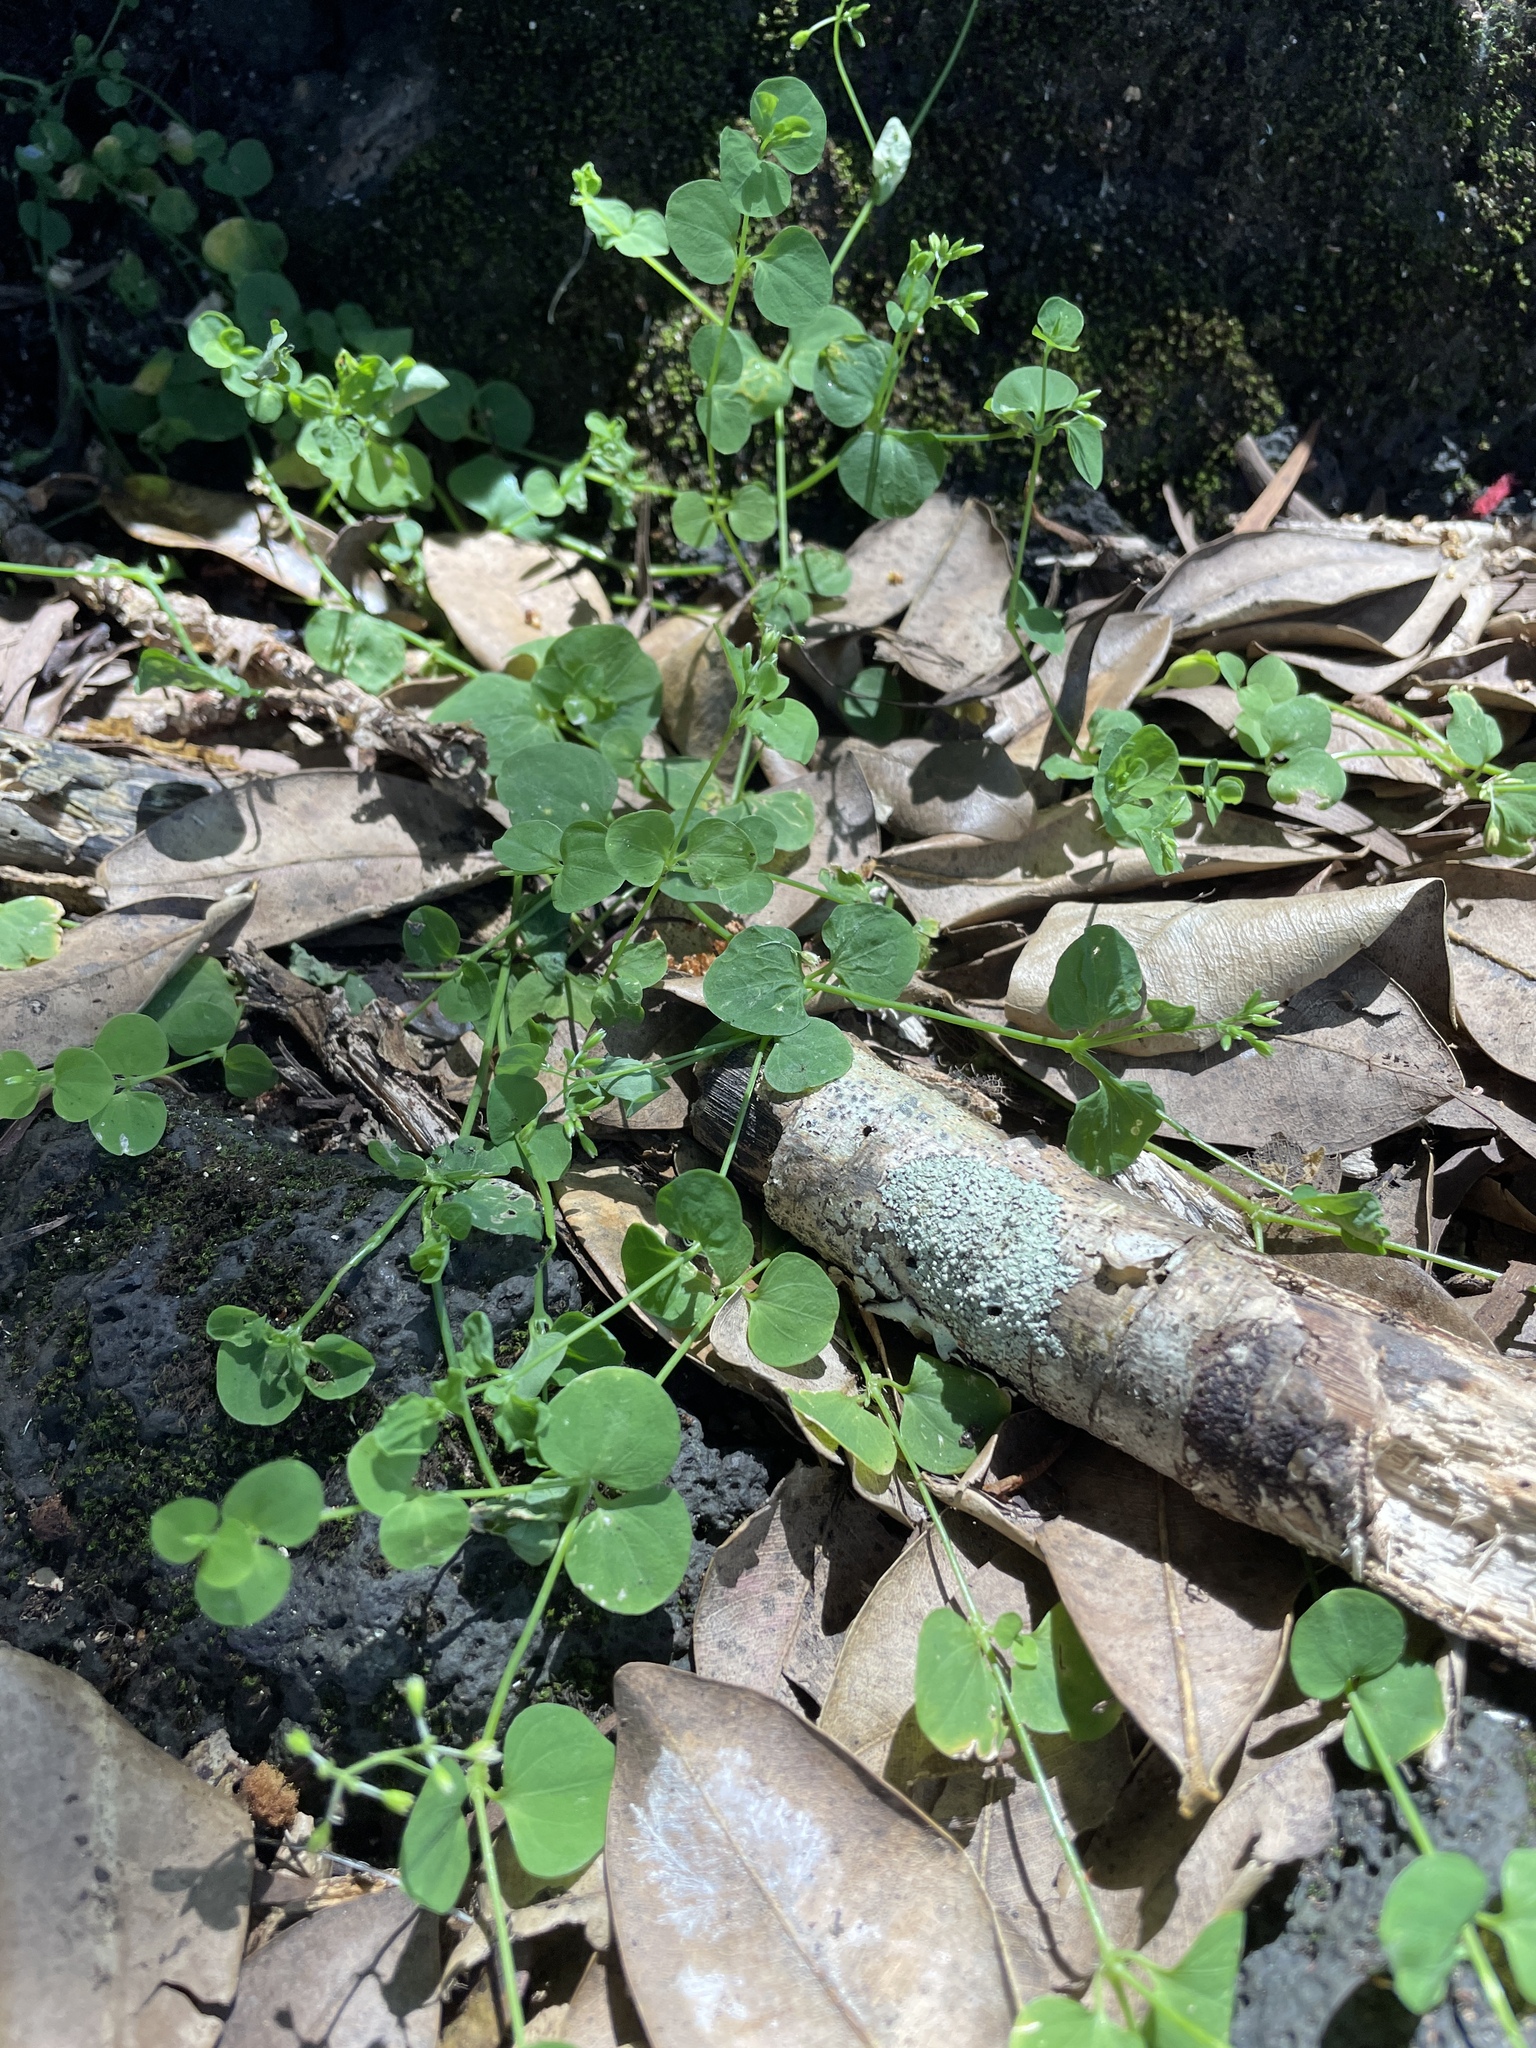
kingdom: Plantae
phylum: Tracheophyta
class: Magnoliopsida
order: Caryophyllales
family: Caryophyllaceae
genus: Drymaria
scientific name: Drymaria cordata
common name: Whitesnow
